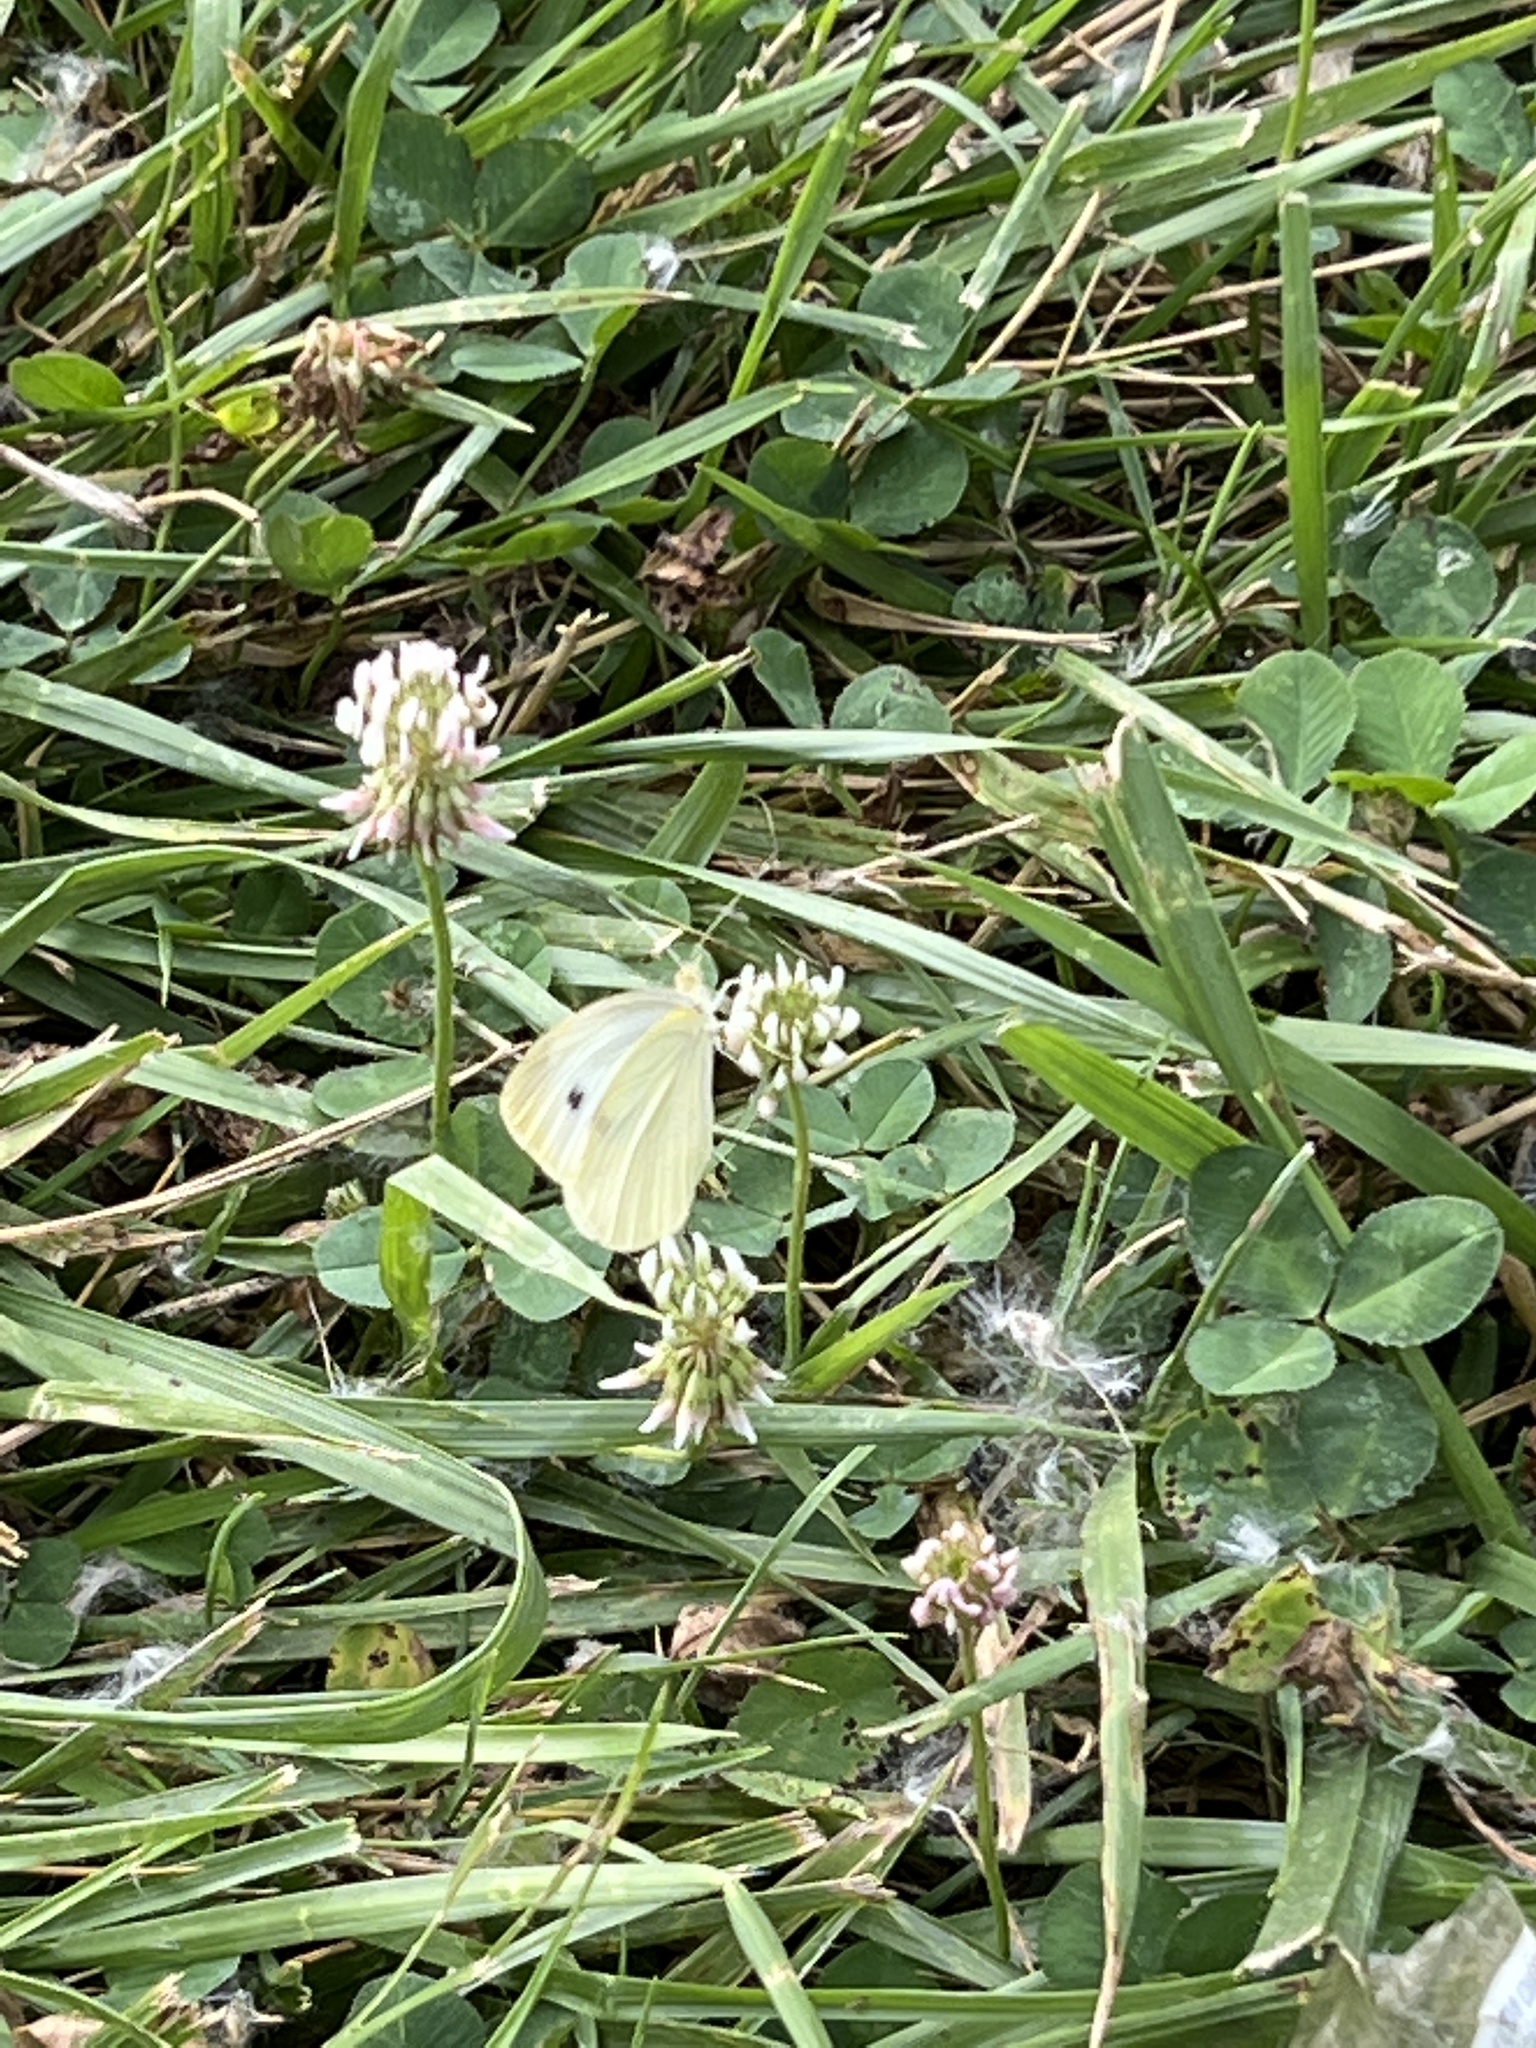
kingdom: Animalia
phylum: Arthropoda
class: Insecta
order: Lepidoptera
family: Pieridae
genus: Pieris
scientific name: Pieris rapae
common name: Small white
